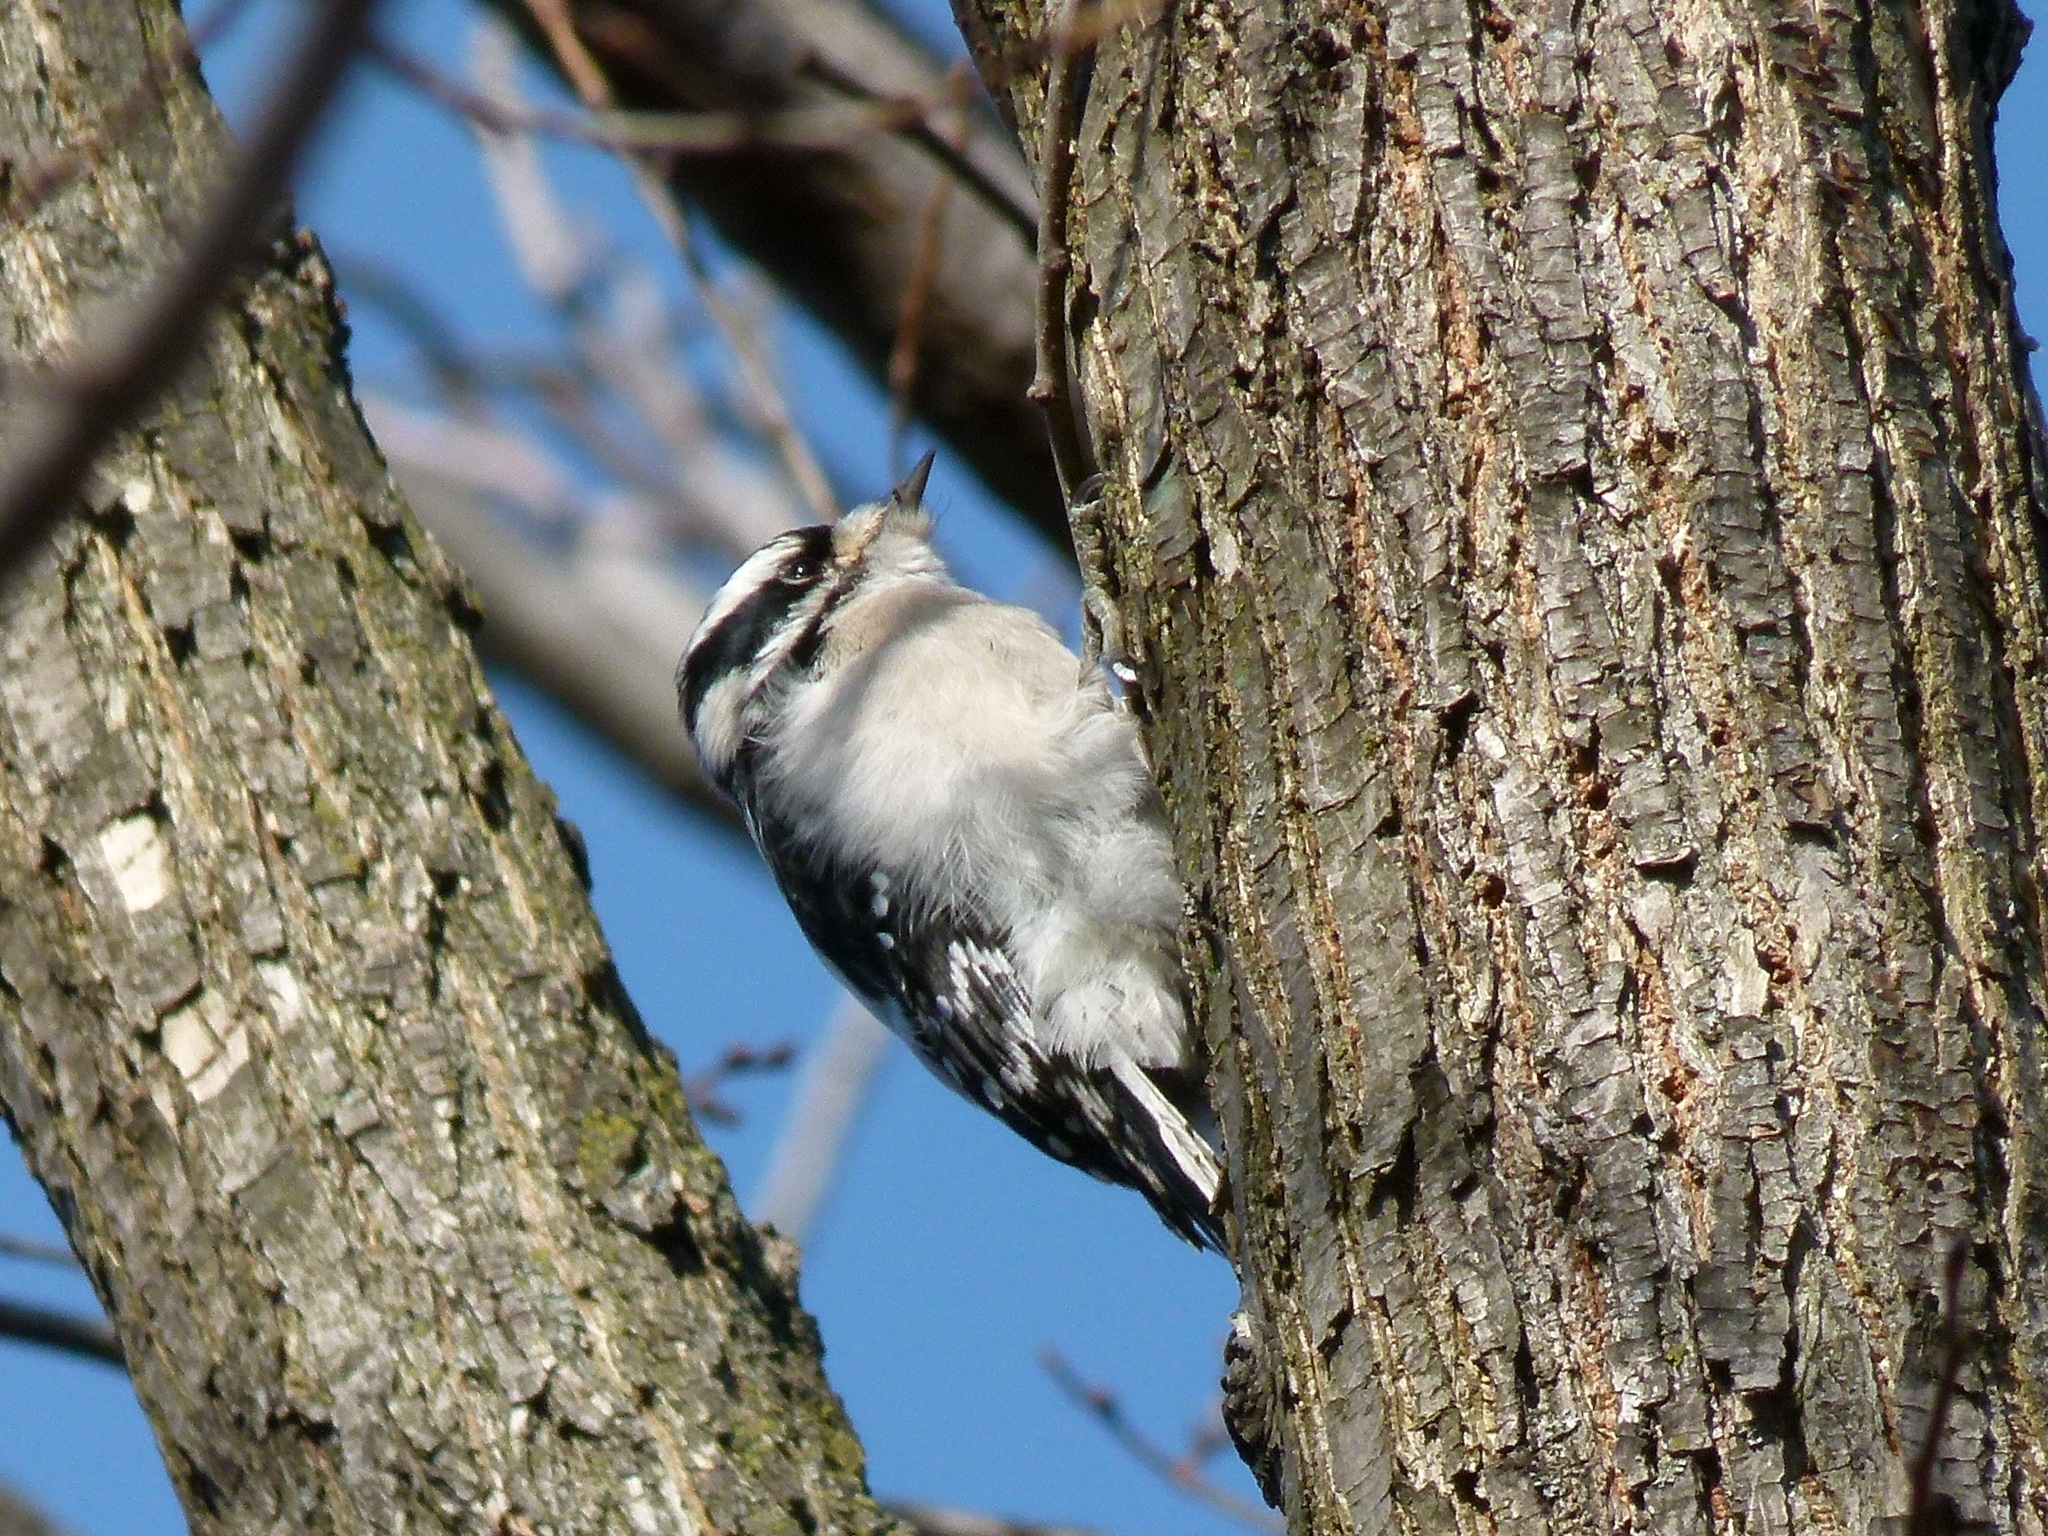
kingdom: Animalia
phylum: Chordata
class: Aves
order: Piciformes
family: Picidae
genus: Dryobates
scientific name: Dryobates pubescens
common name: Downy woodpecker
